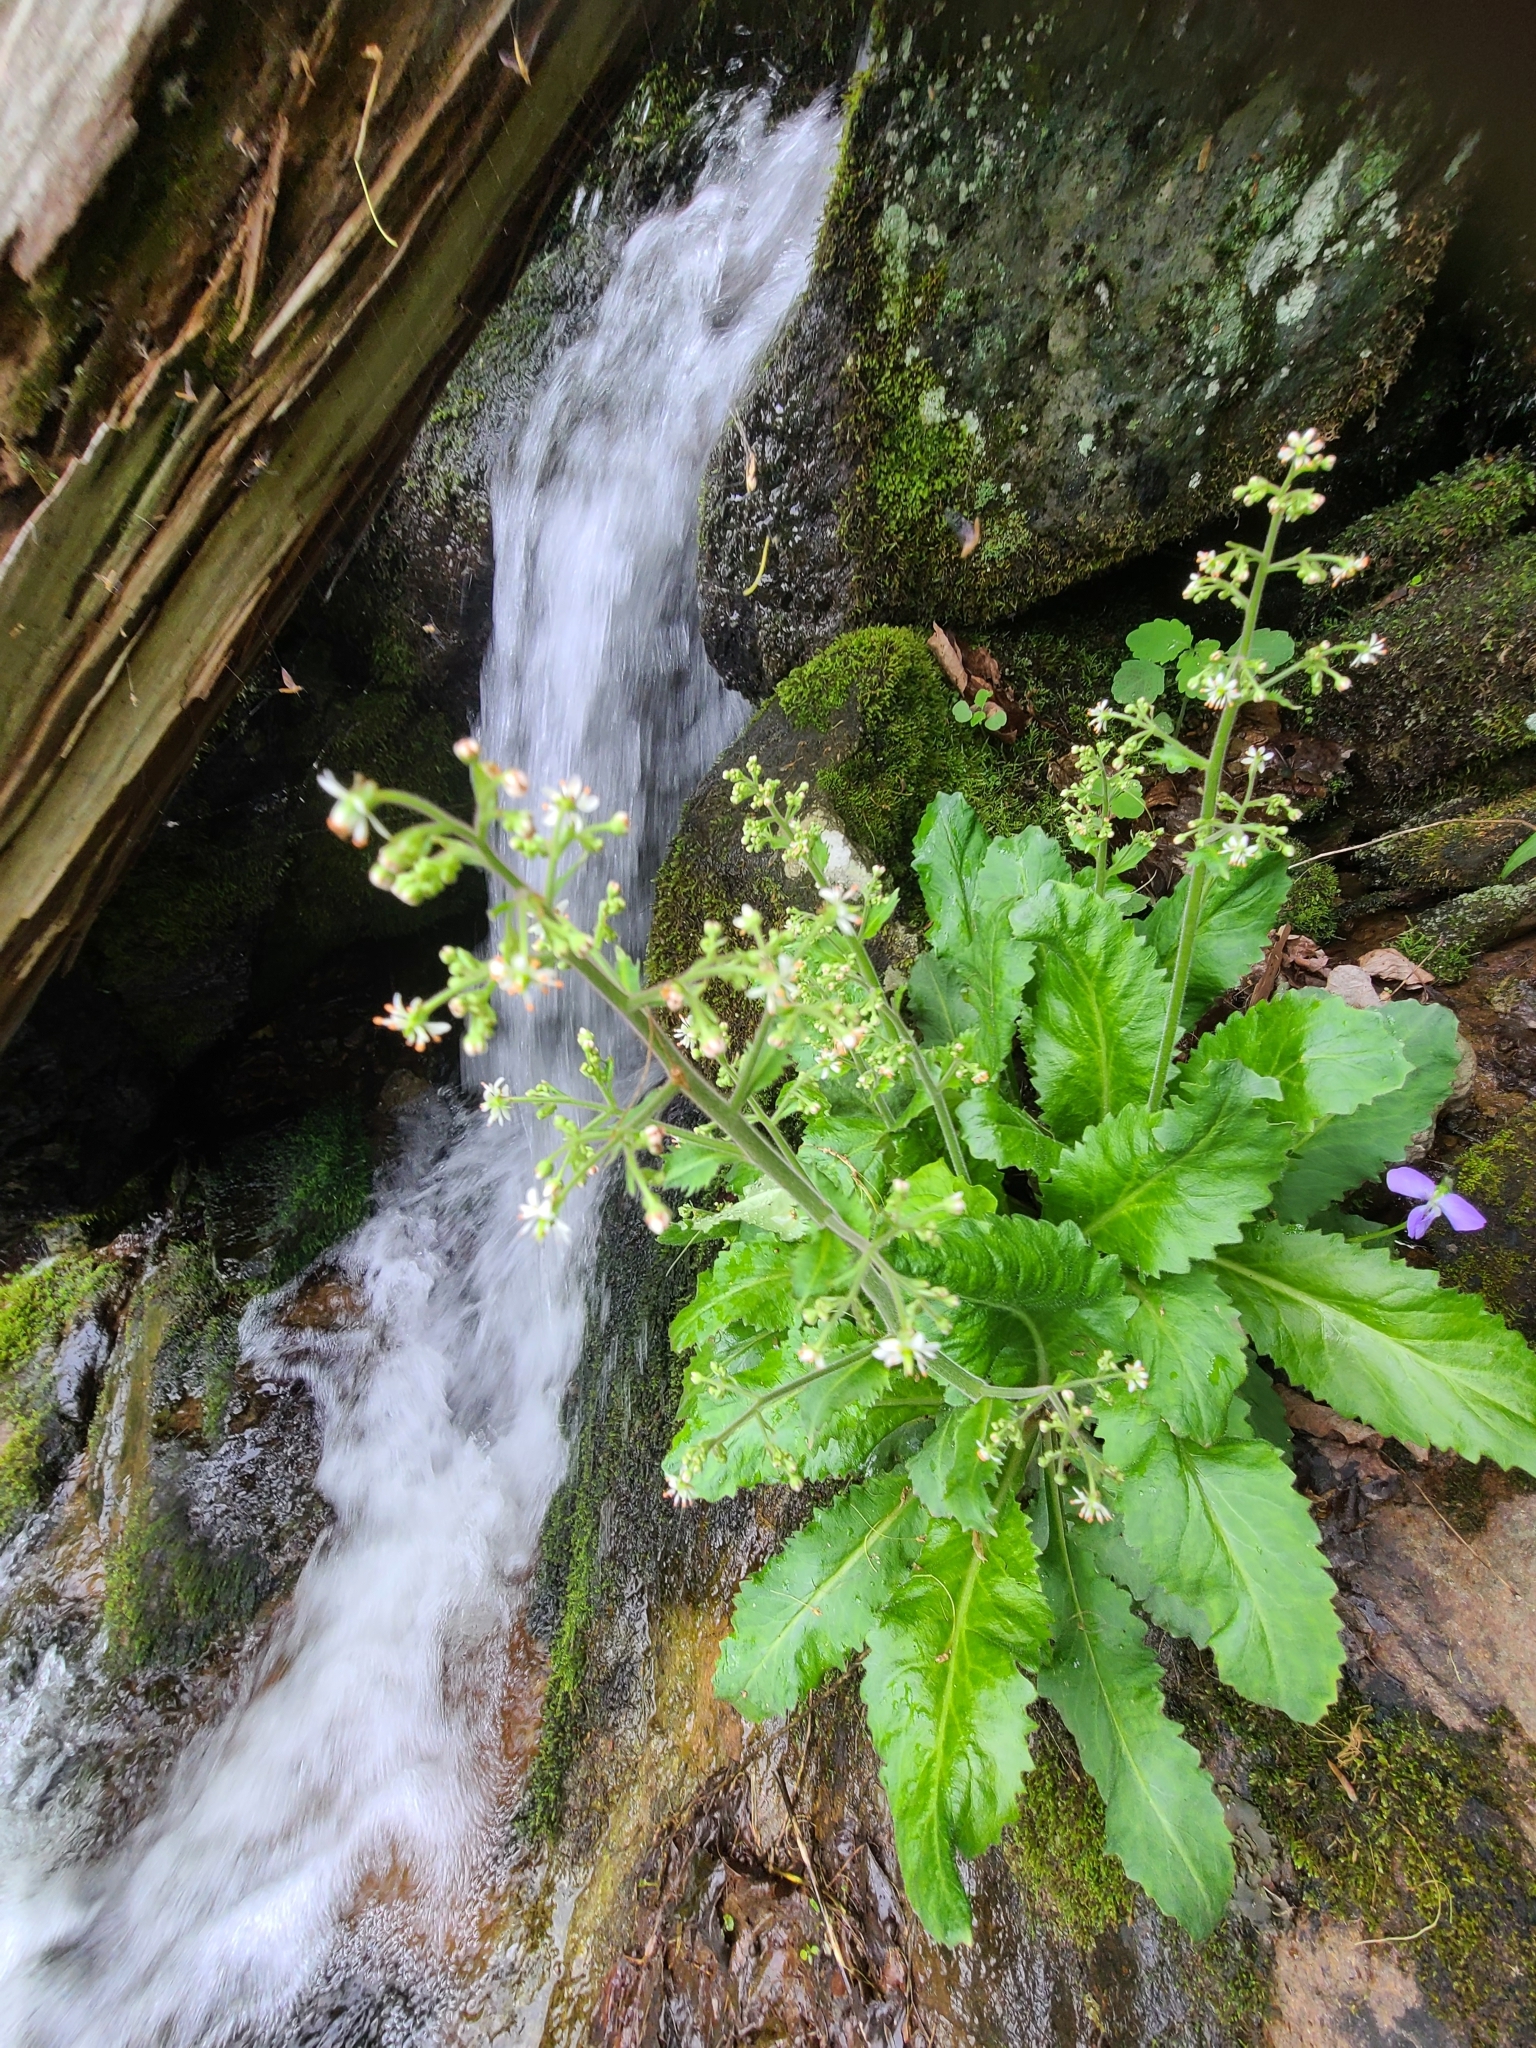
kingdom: Plantae
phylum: Tracheophyta
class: Magnoliopsida
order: Saxifragales
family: Saxifragaceae
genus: Micranthes
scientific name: Micranthes micranthidifolia
